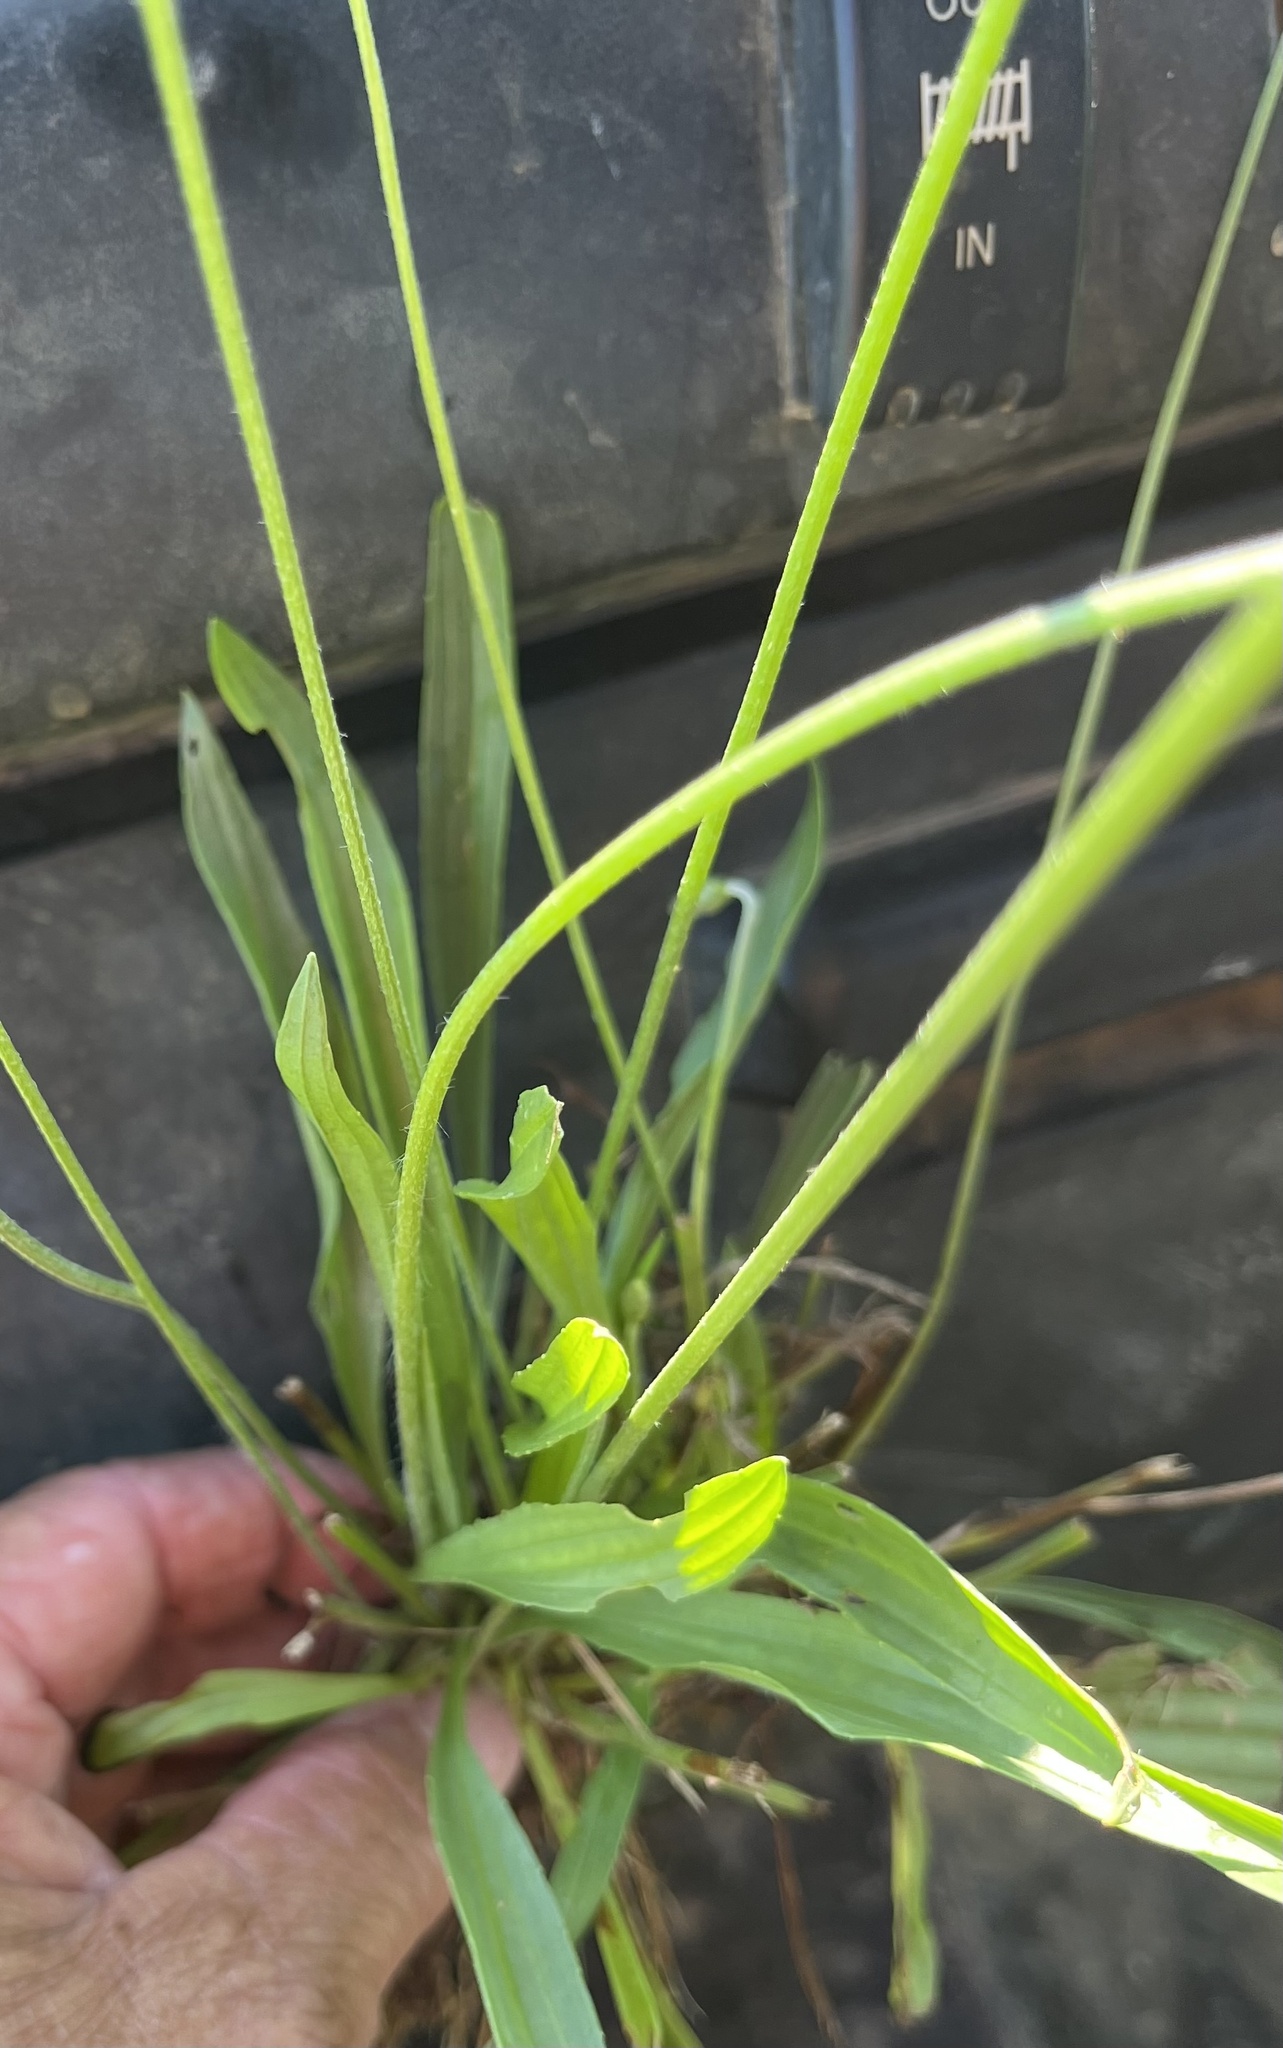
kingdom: Plantae
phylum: Tracheophyta
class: Magnoliopsida
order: Lamiales
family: Plantaginaceae
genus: Plantago
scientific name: Plantago lanceolata
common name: Ribwort plantain
